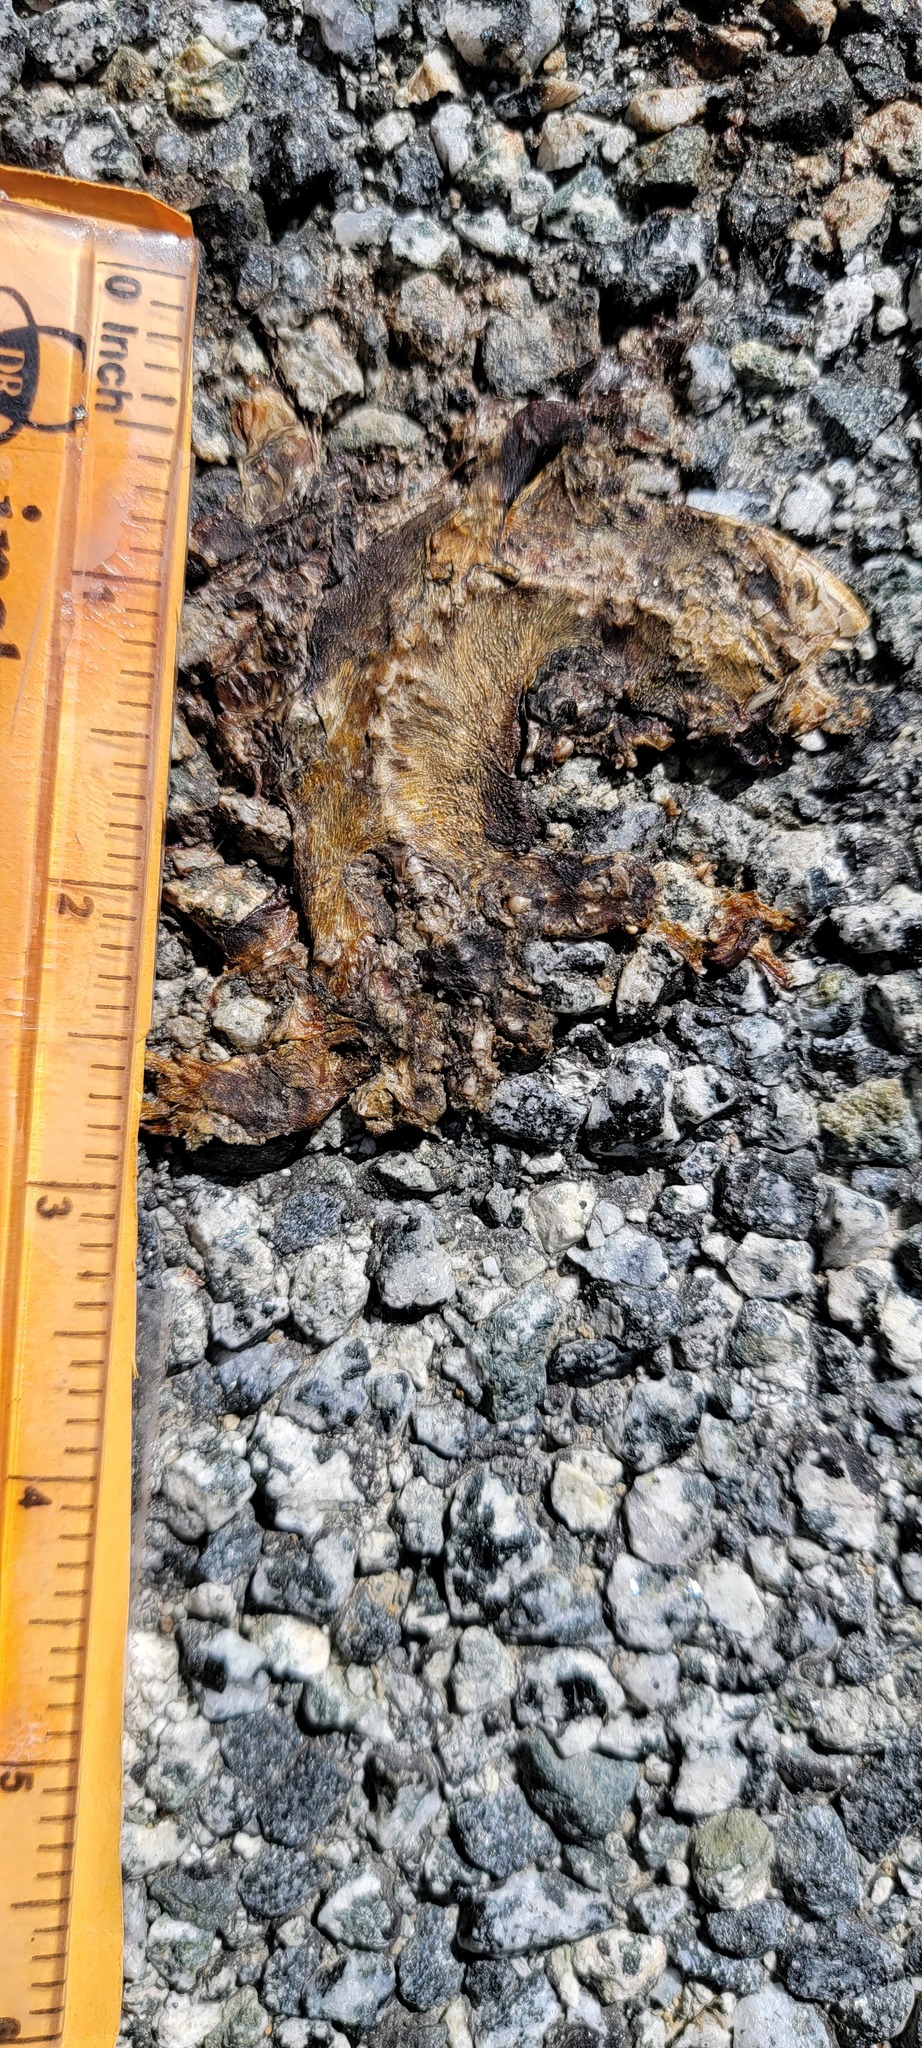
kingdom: Animalia
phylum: Chordata
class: Amphibia
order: Caudata
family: Salamandridae
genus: Taricha
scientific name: Taricha
